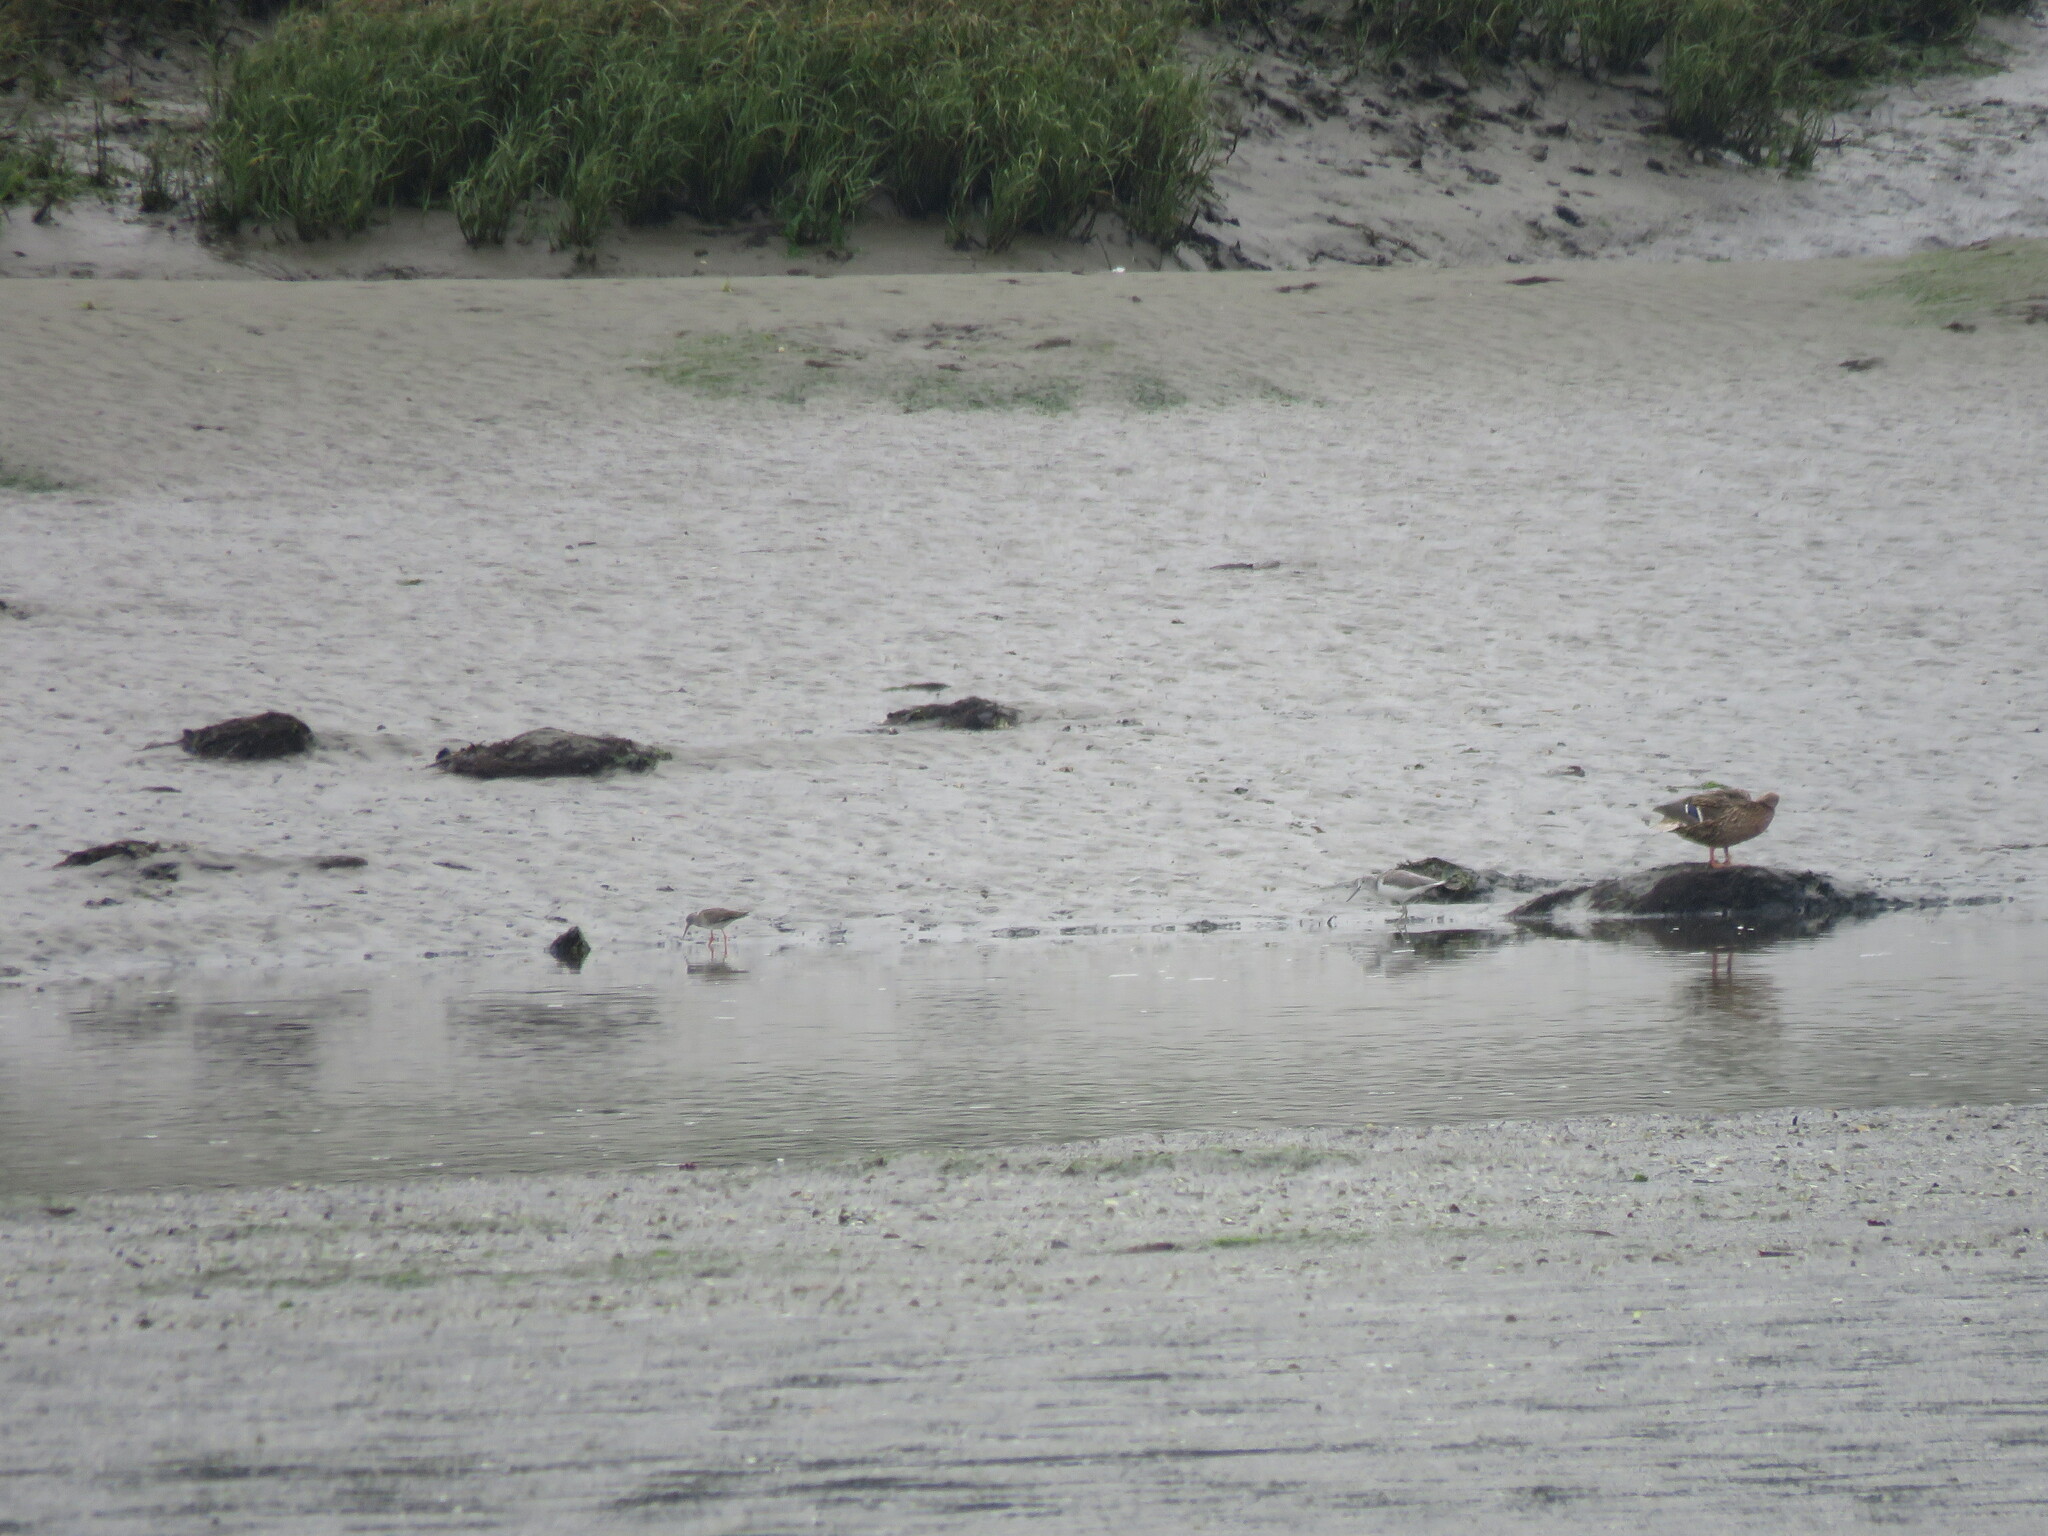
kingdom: Animalia
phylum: Chordata
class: Aves
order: Charadriiformes
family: Scolopacidae
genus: Tringa
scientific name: Tringa totanus
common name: Common redshank
